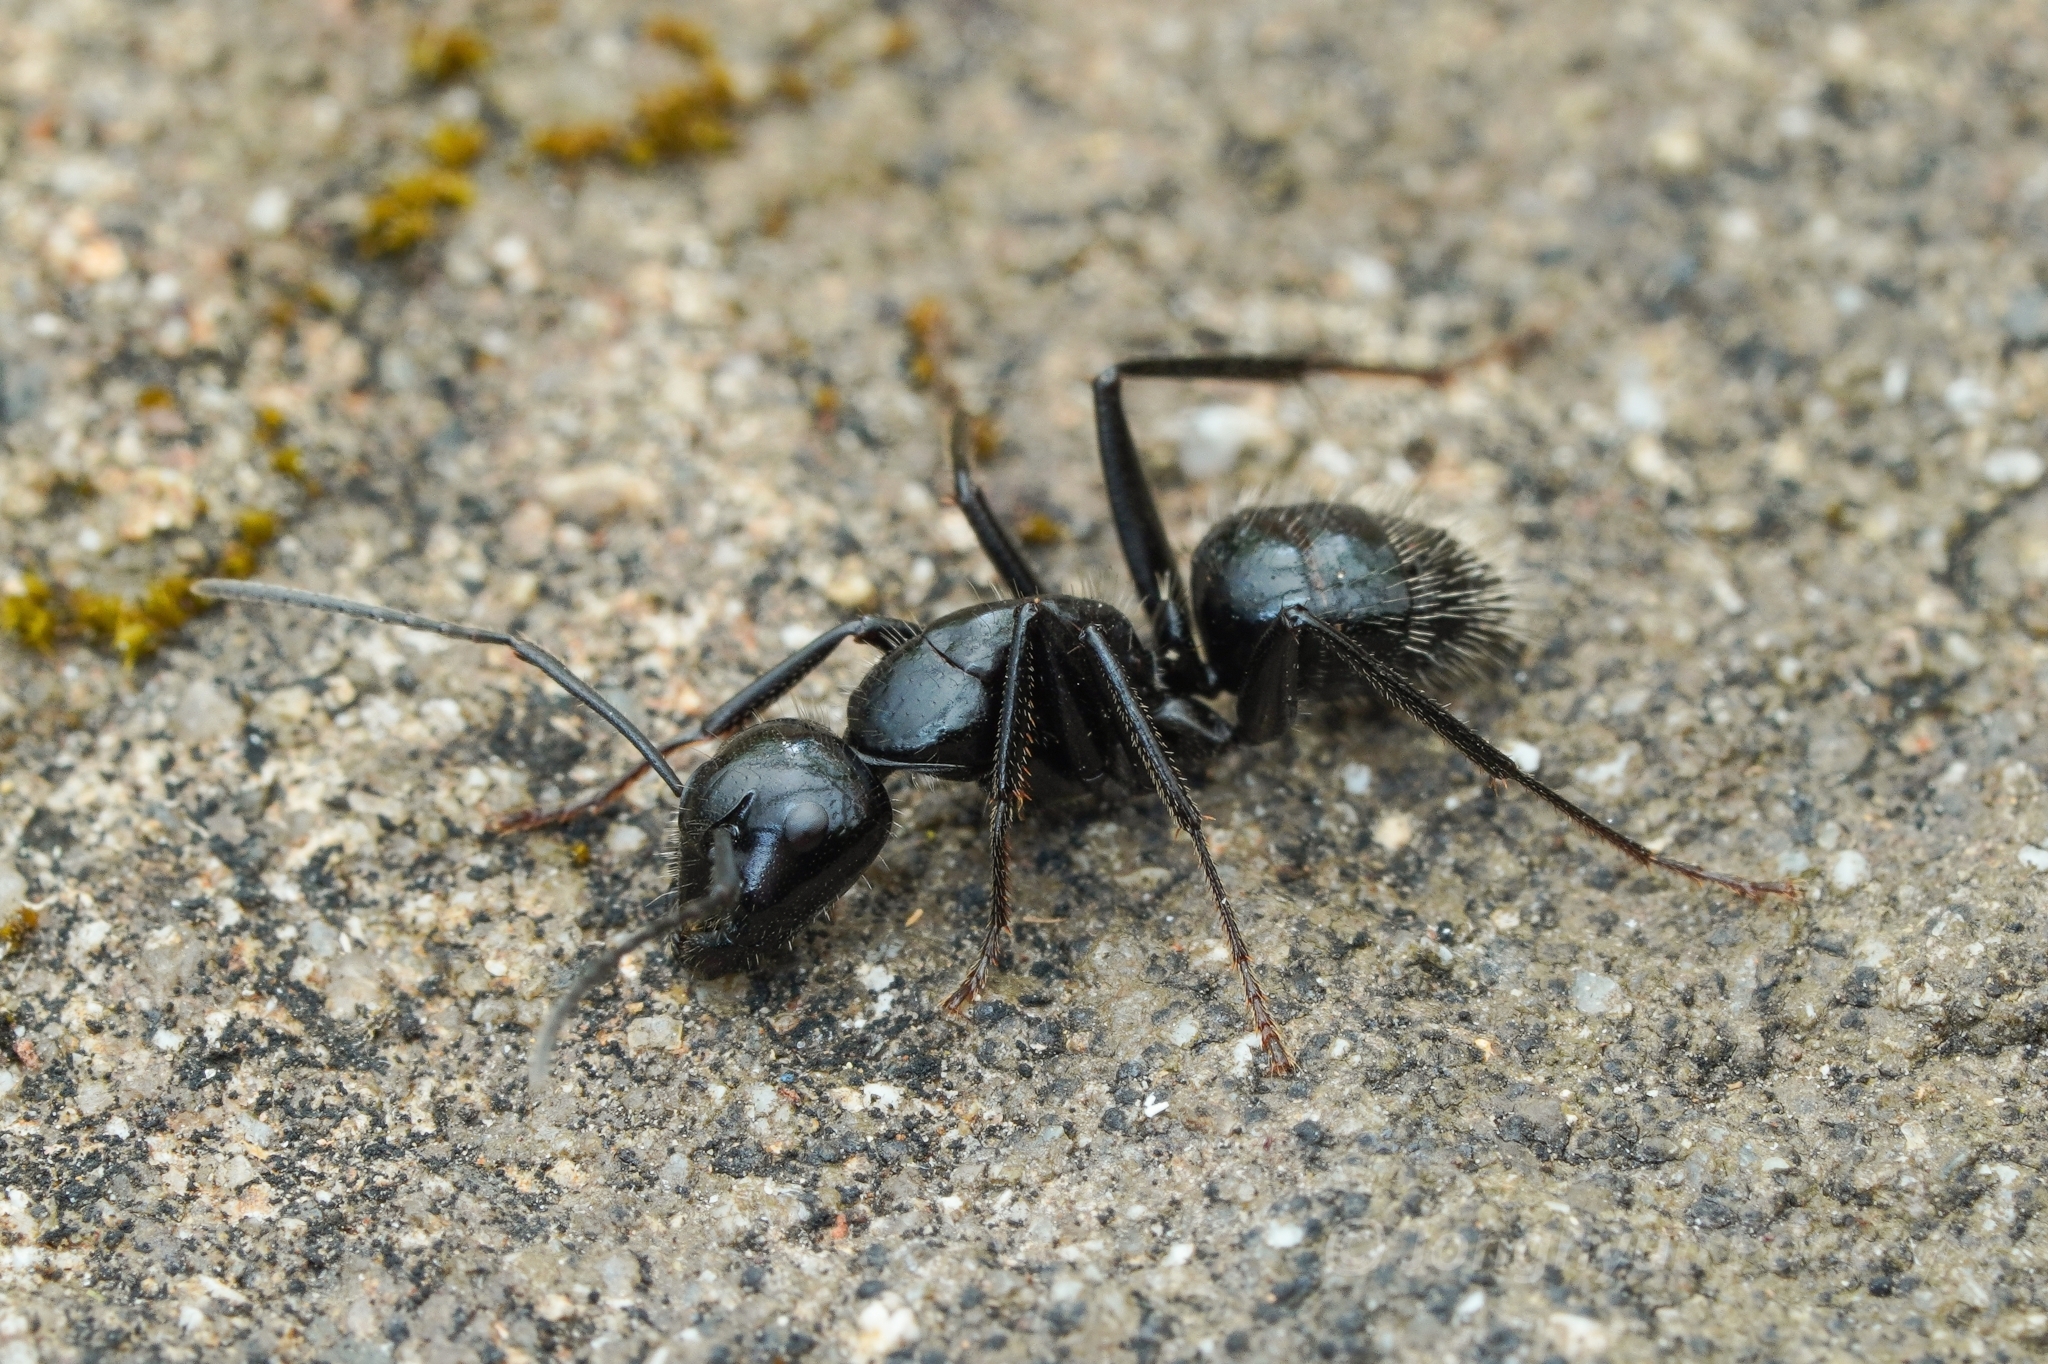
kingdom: Animalia
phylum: Arthropoda
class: Insecta
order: Hymenoptera
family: Formicidae
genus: Camponotus
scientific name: Camponotus
